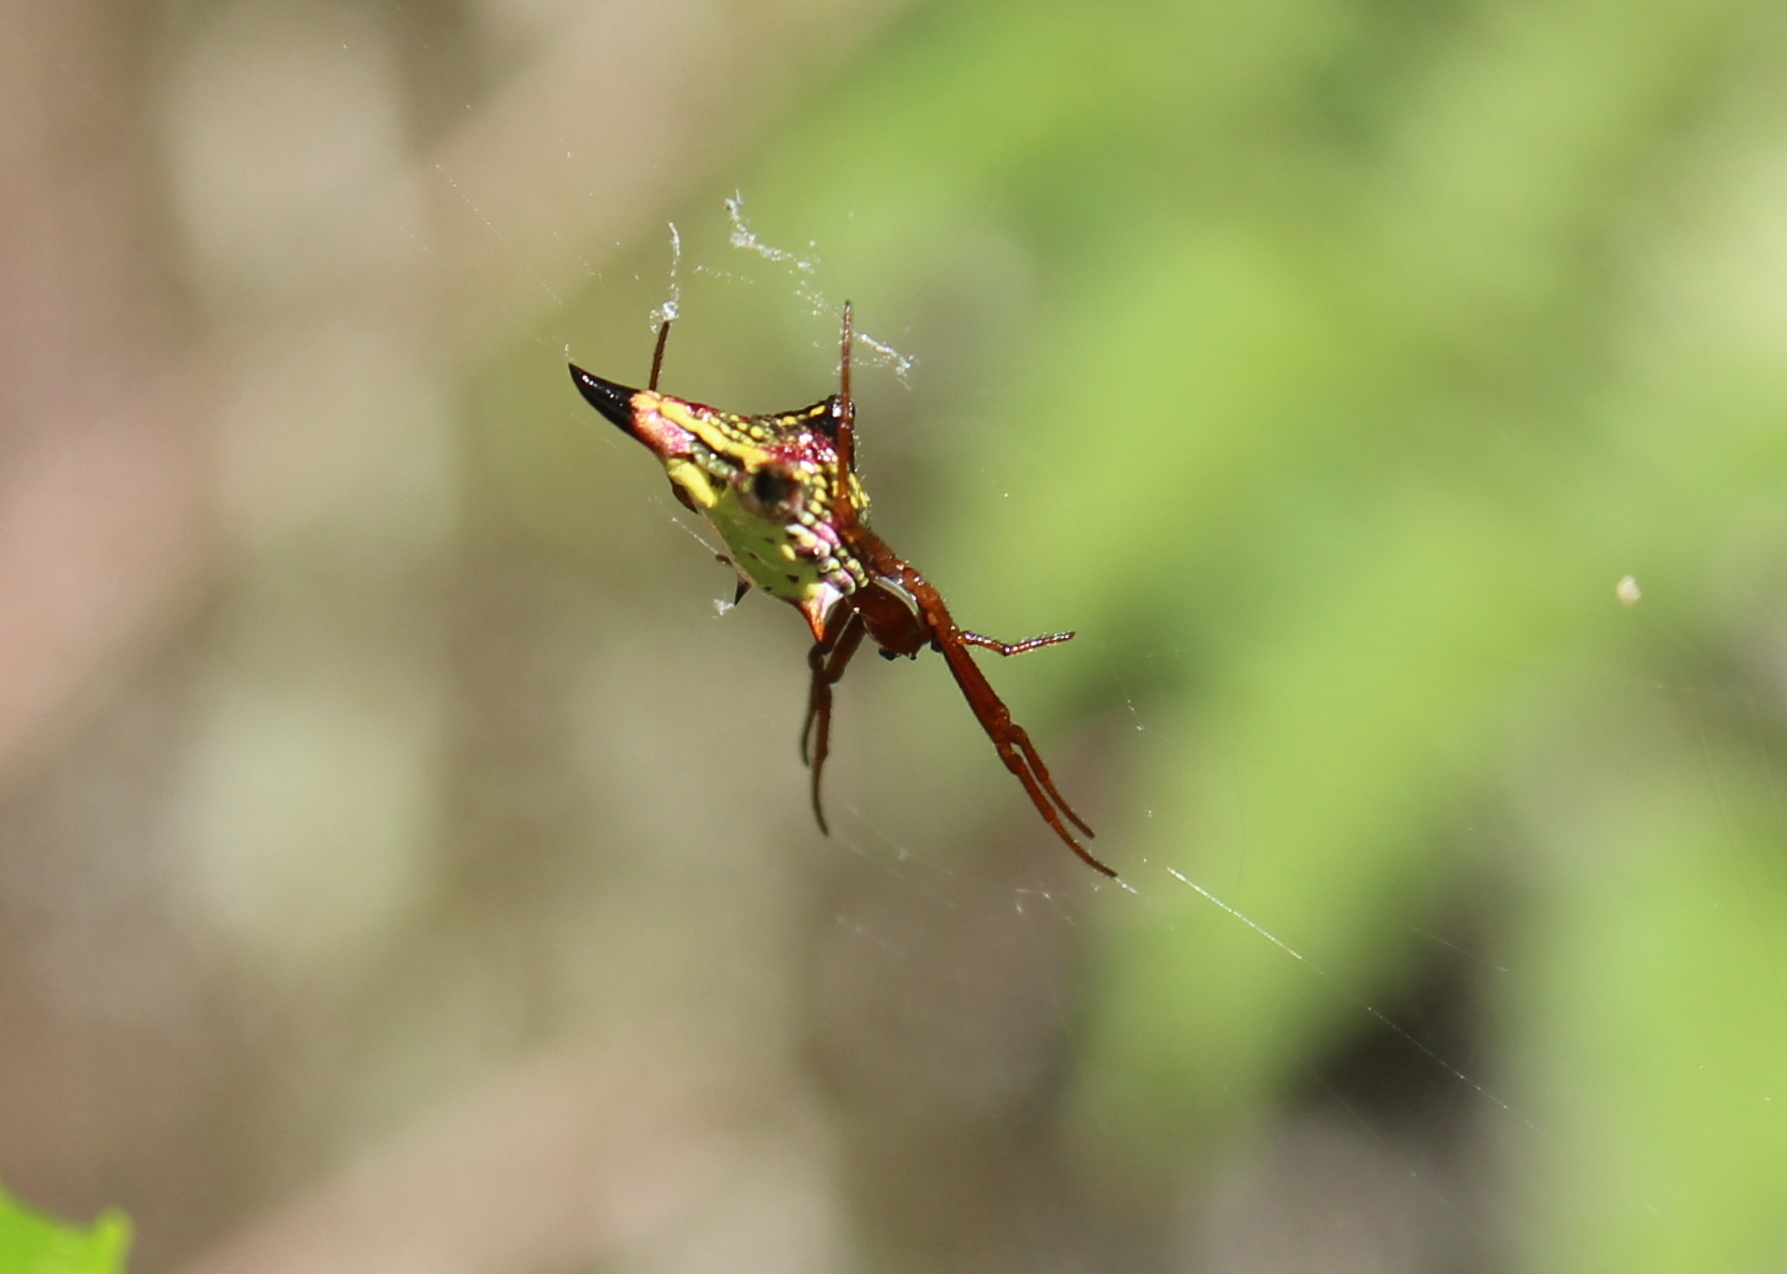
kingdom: Animalia
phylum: Arthropoda
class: Arachnida
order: Araneae
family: Araneidae
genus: Micrathena
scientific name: Micrathena sagittata
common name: Orb weavers
